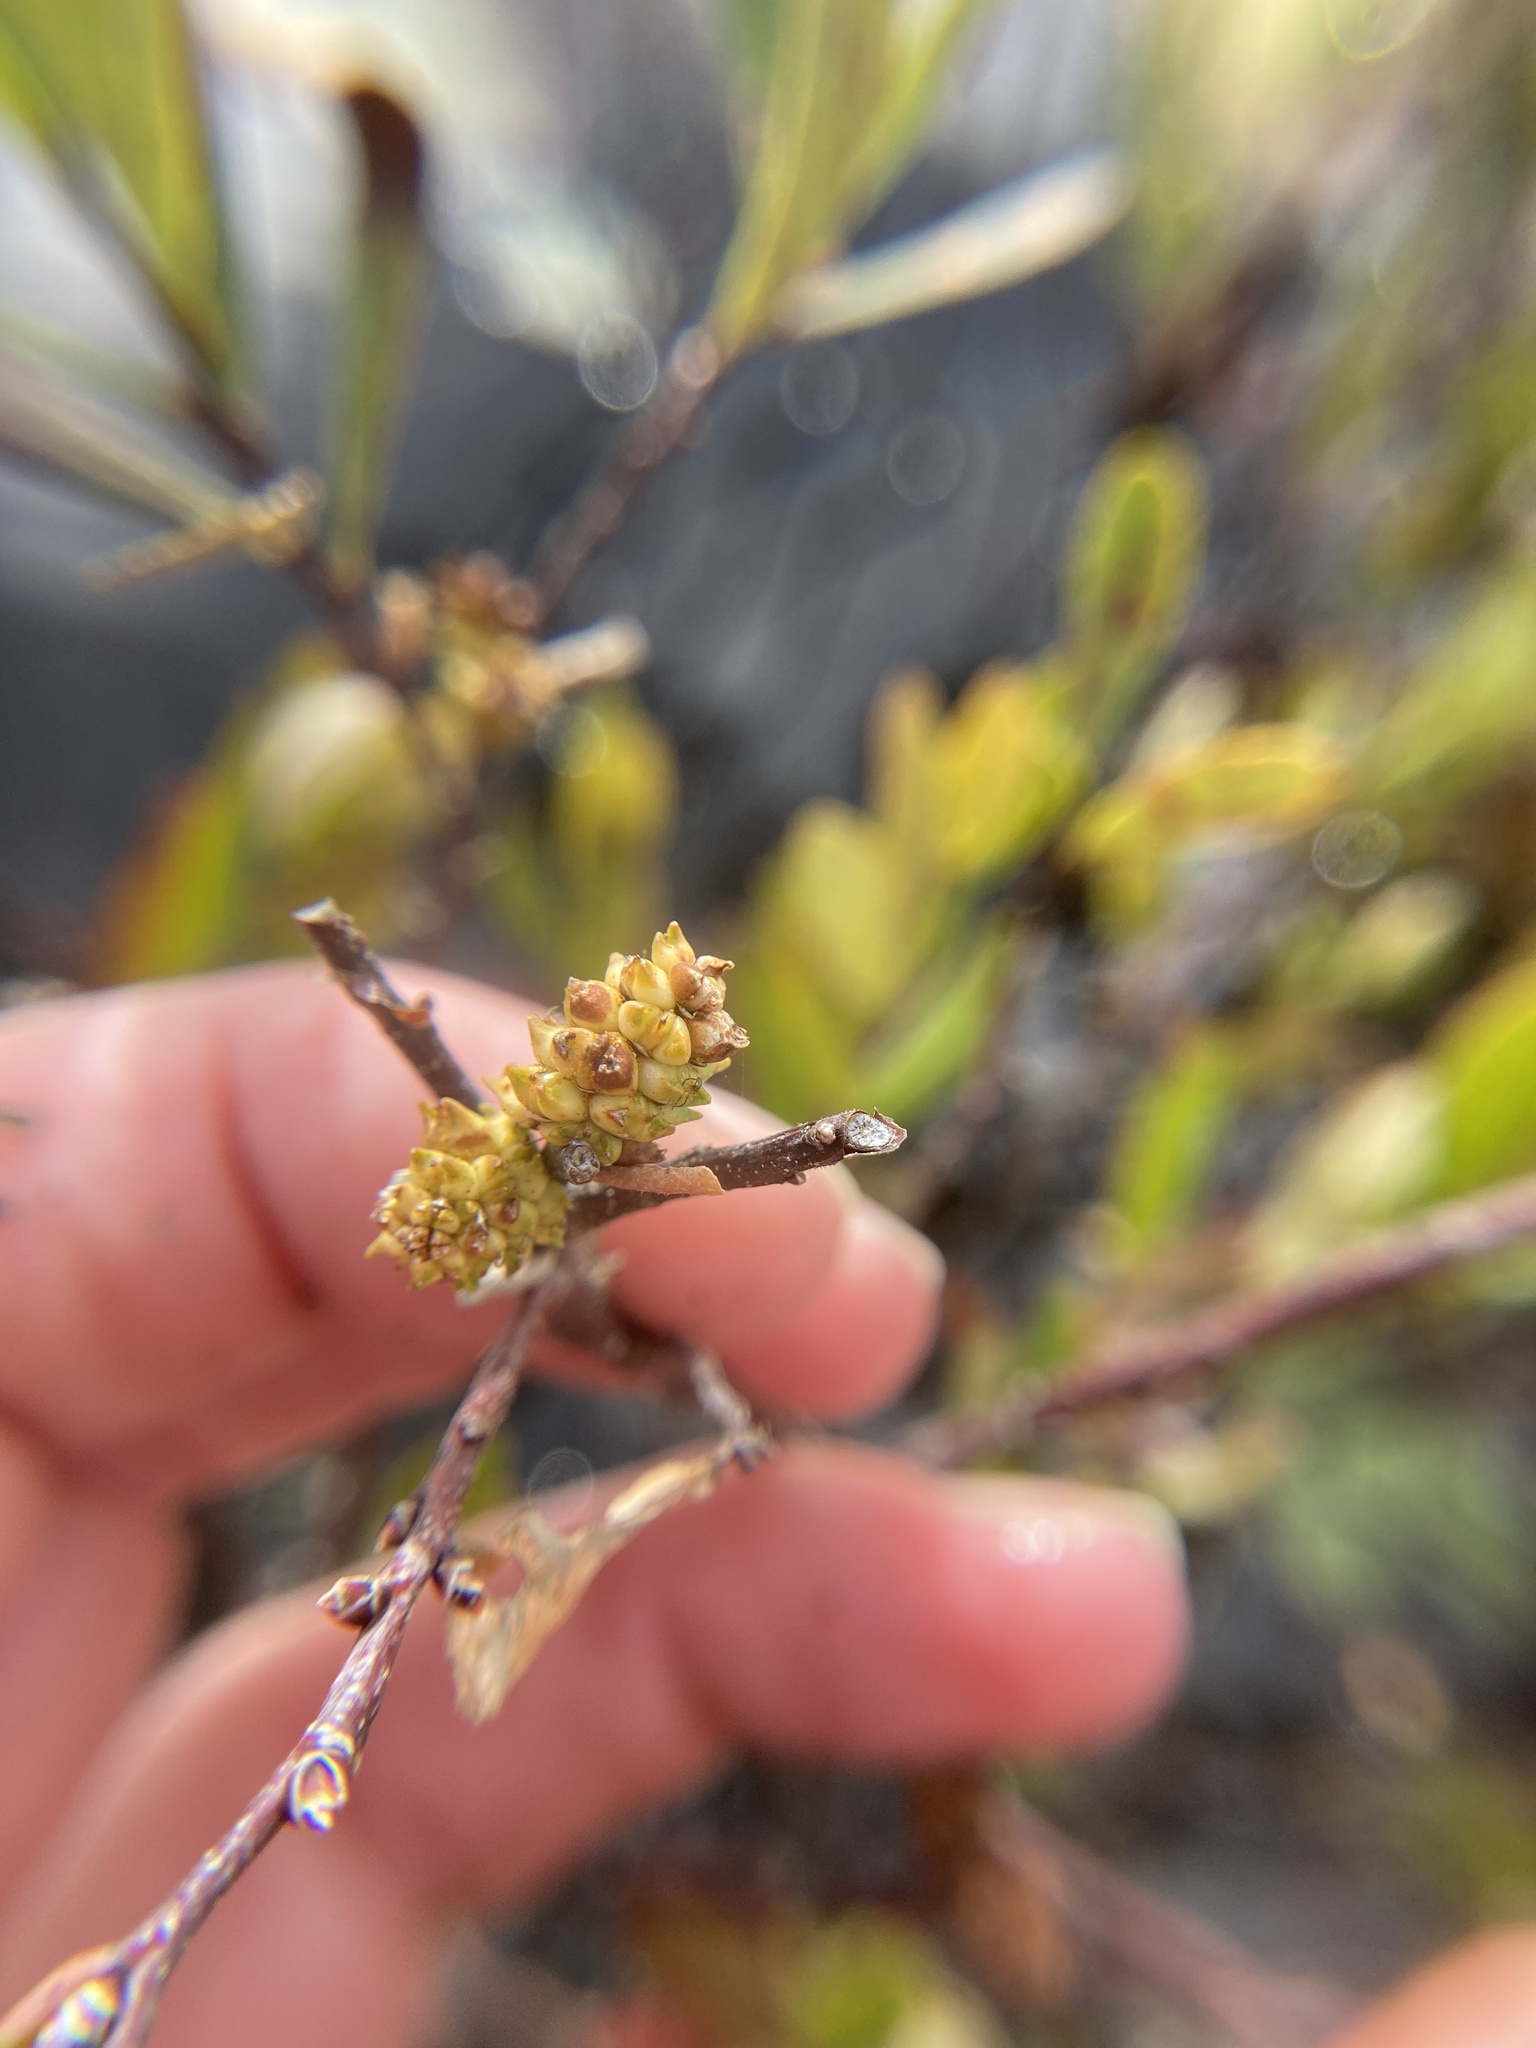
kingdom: Plantae
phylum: Tracheophyta
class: Magnoliopsida
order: Fagales
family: Myricaceae
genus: Myrica
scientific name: Myrica gale
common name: Sweet gale
